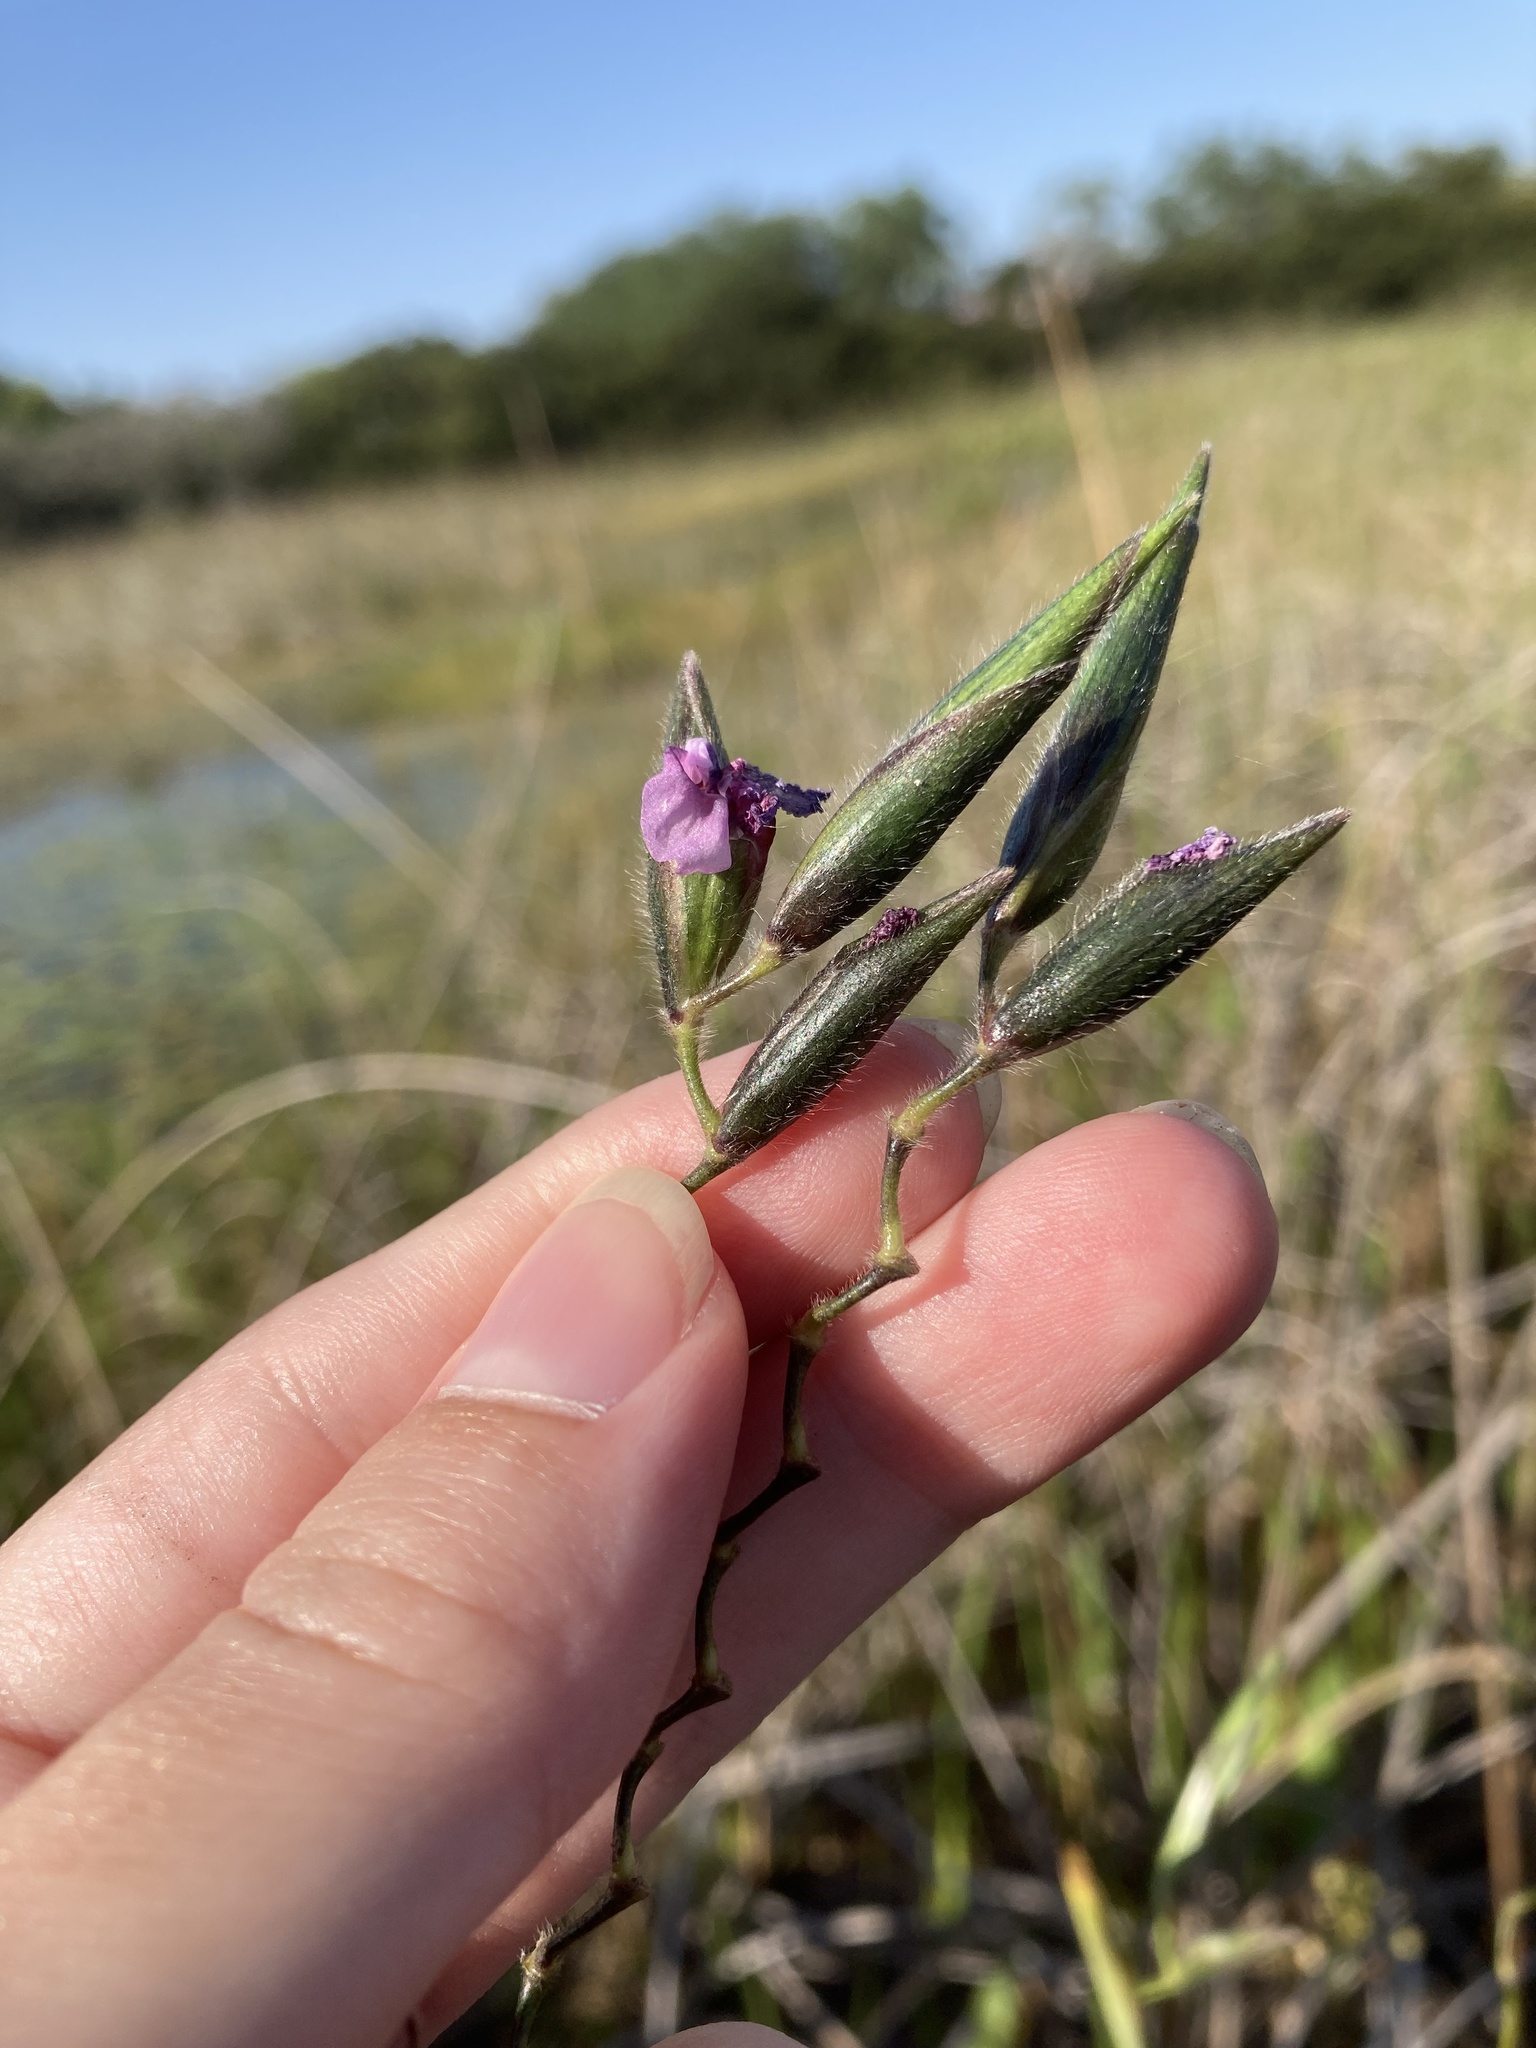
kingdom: Plantae
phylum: Tracheophyta
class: Liliopsida
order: Zingiberales
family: Marantaceae
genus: Thalia
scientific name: Thalia geniculata
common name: Arrowroot
